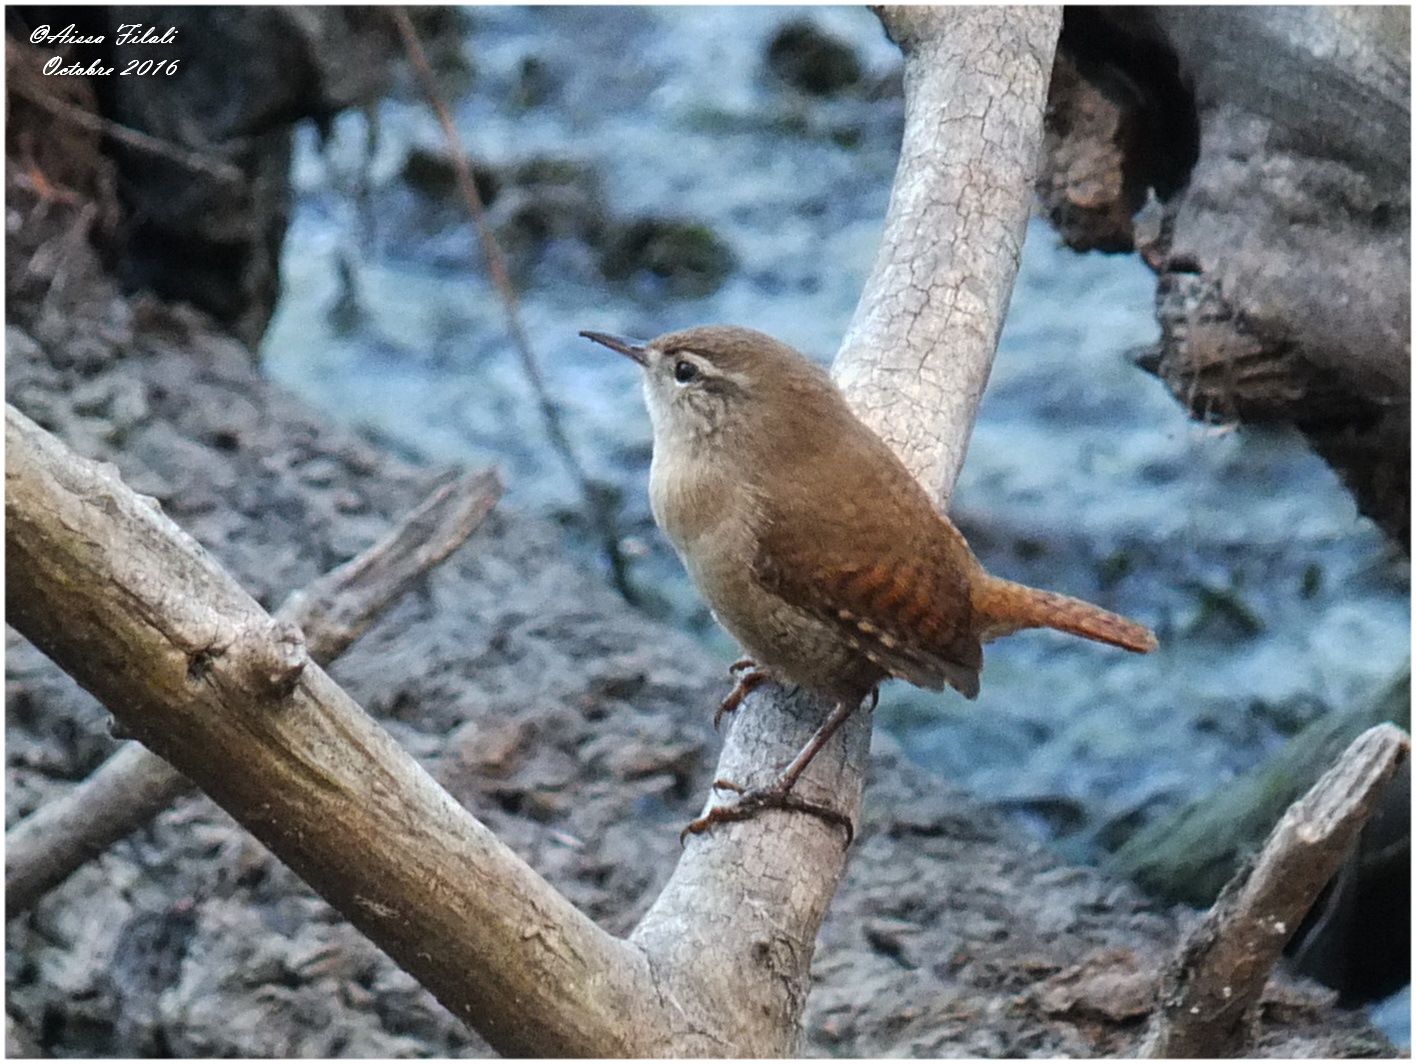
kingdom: Animalia
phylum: Chordata
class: Aves
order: Passeriformes
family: Troglodytidae
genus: Troglodytes
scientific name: Troglodytes troglodytes
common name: Eurasian wren
